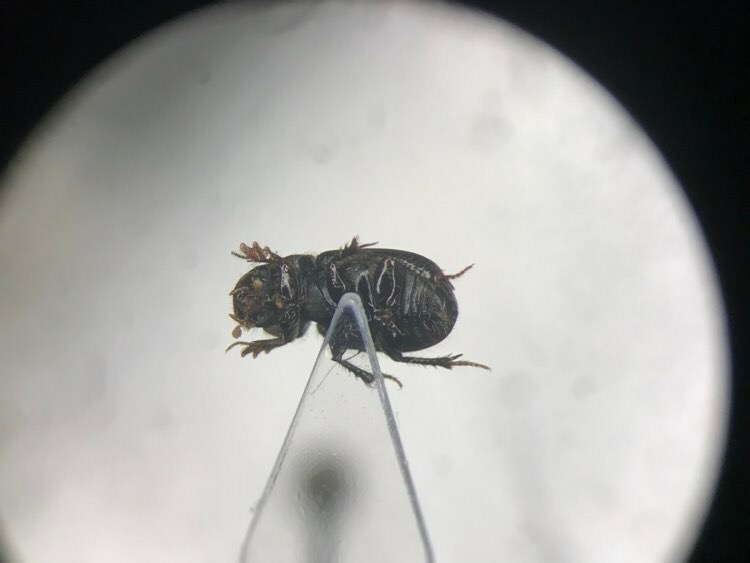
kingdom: Animalia
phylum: Arthropoda
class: Insecta
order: Coleoptera
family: Scarabaeidae
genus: Aegialia
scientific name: Aegialia blanchardi
